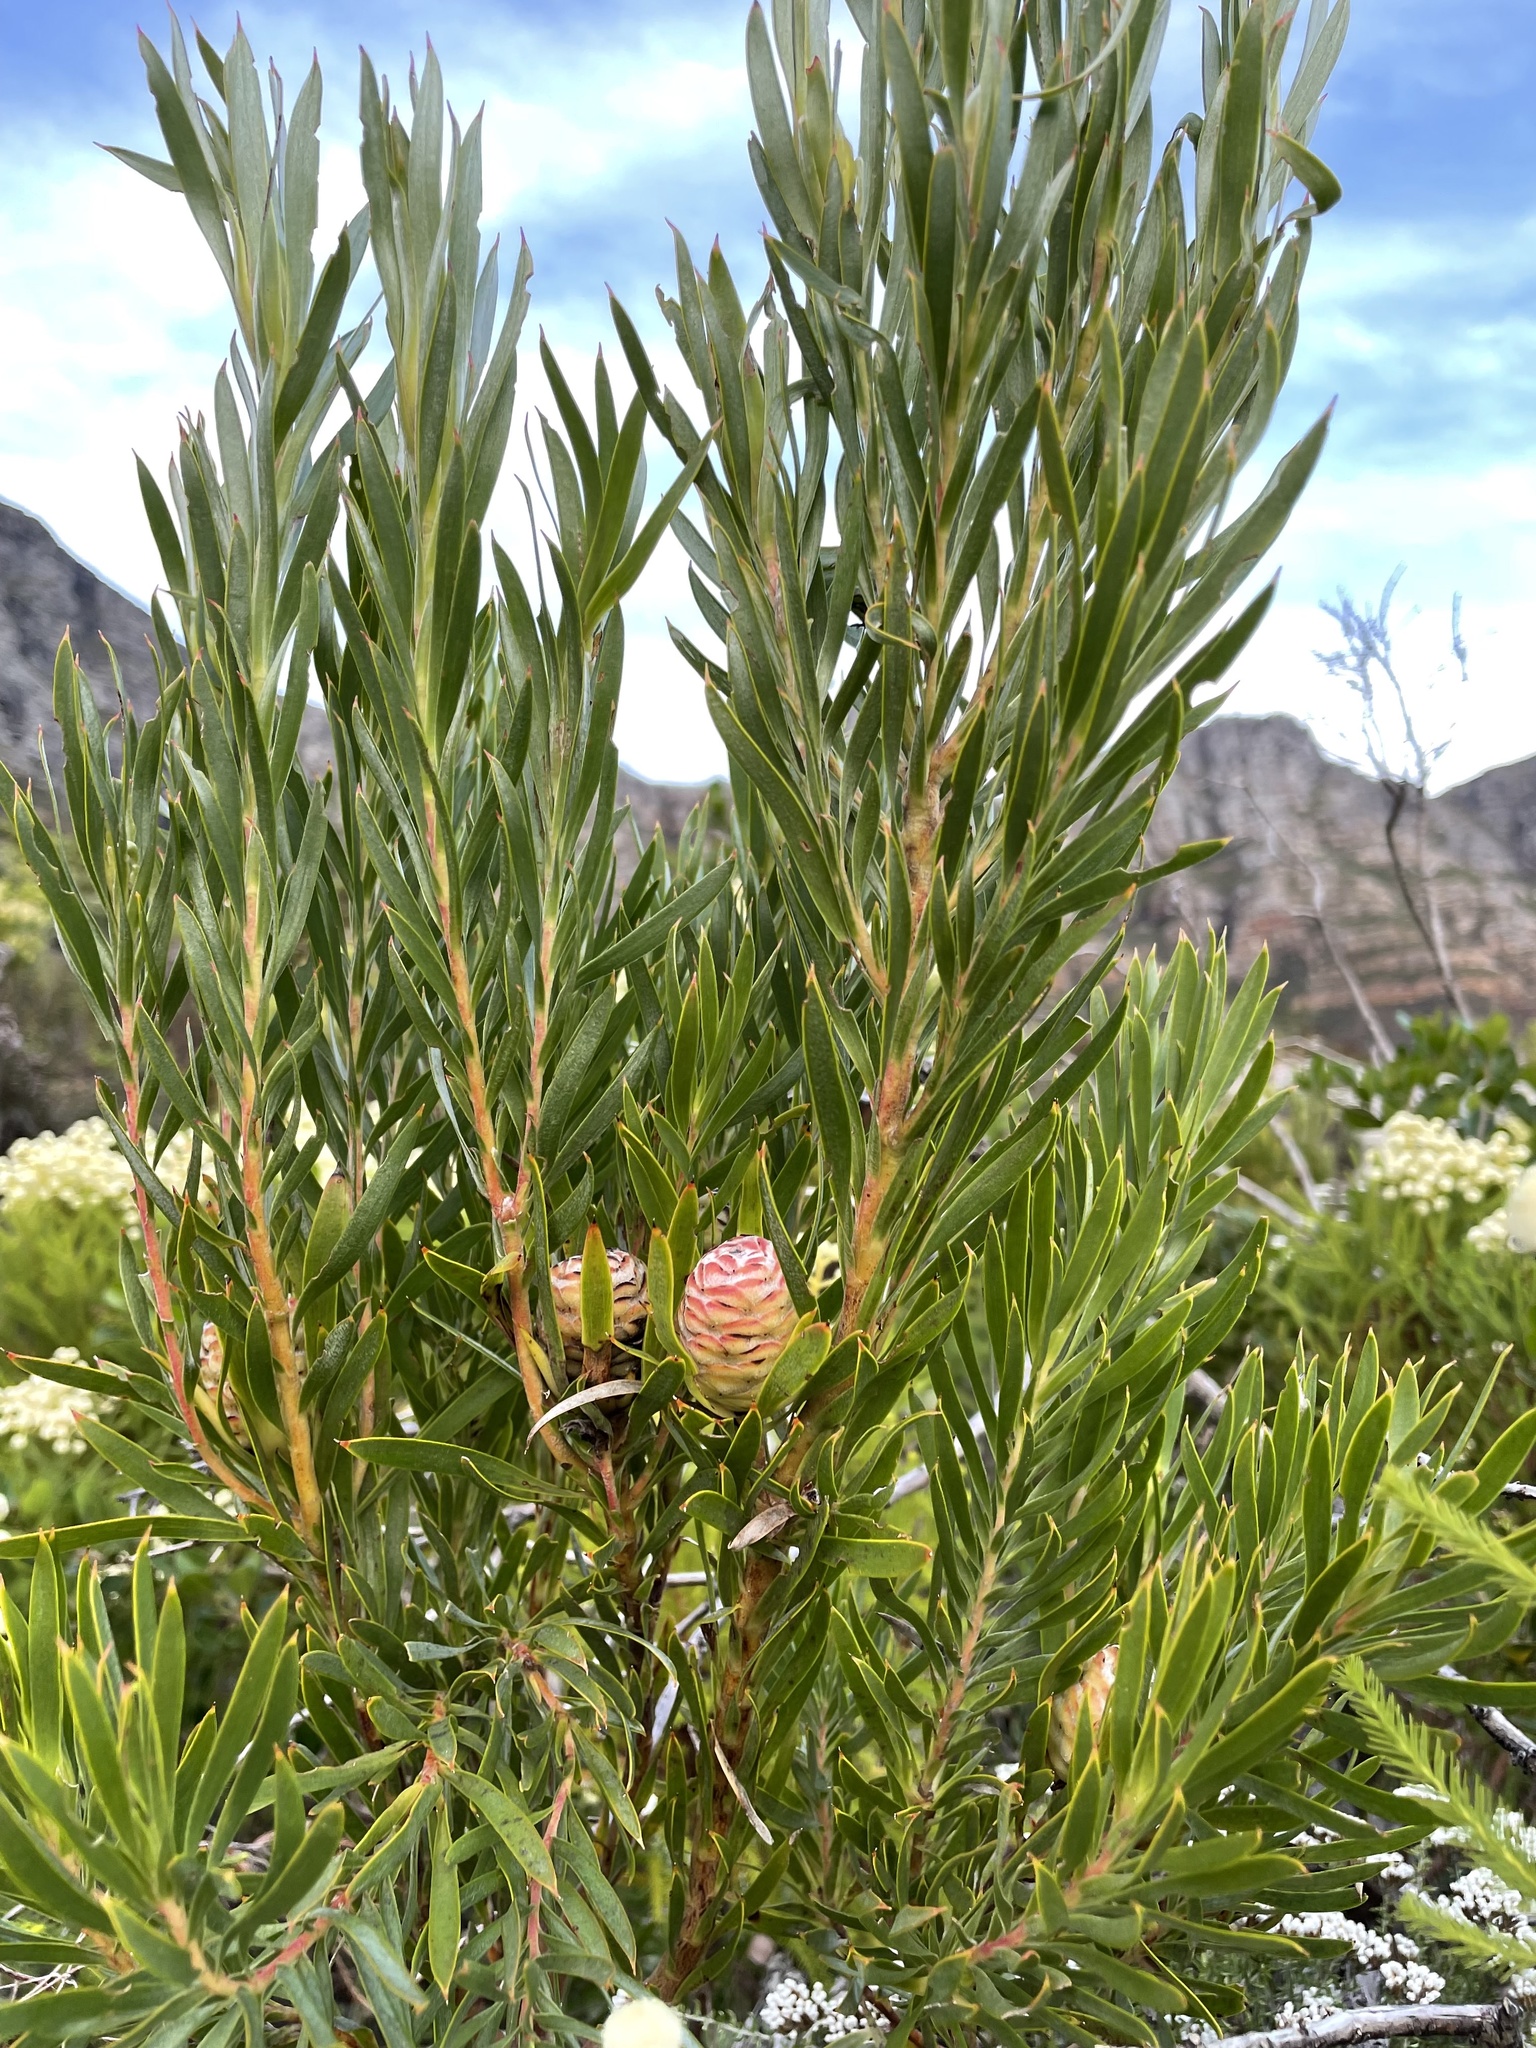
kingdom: Plantae
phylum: Tracheophyta
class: Magnoliopsida
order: Proteales
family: Proteaceae
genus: Leucadendron
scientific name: Leucadendron xanthoconus
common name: Sickle-leaf conebush
